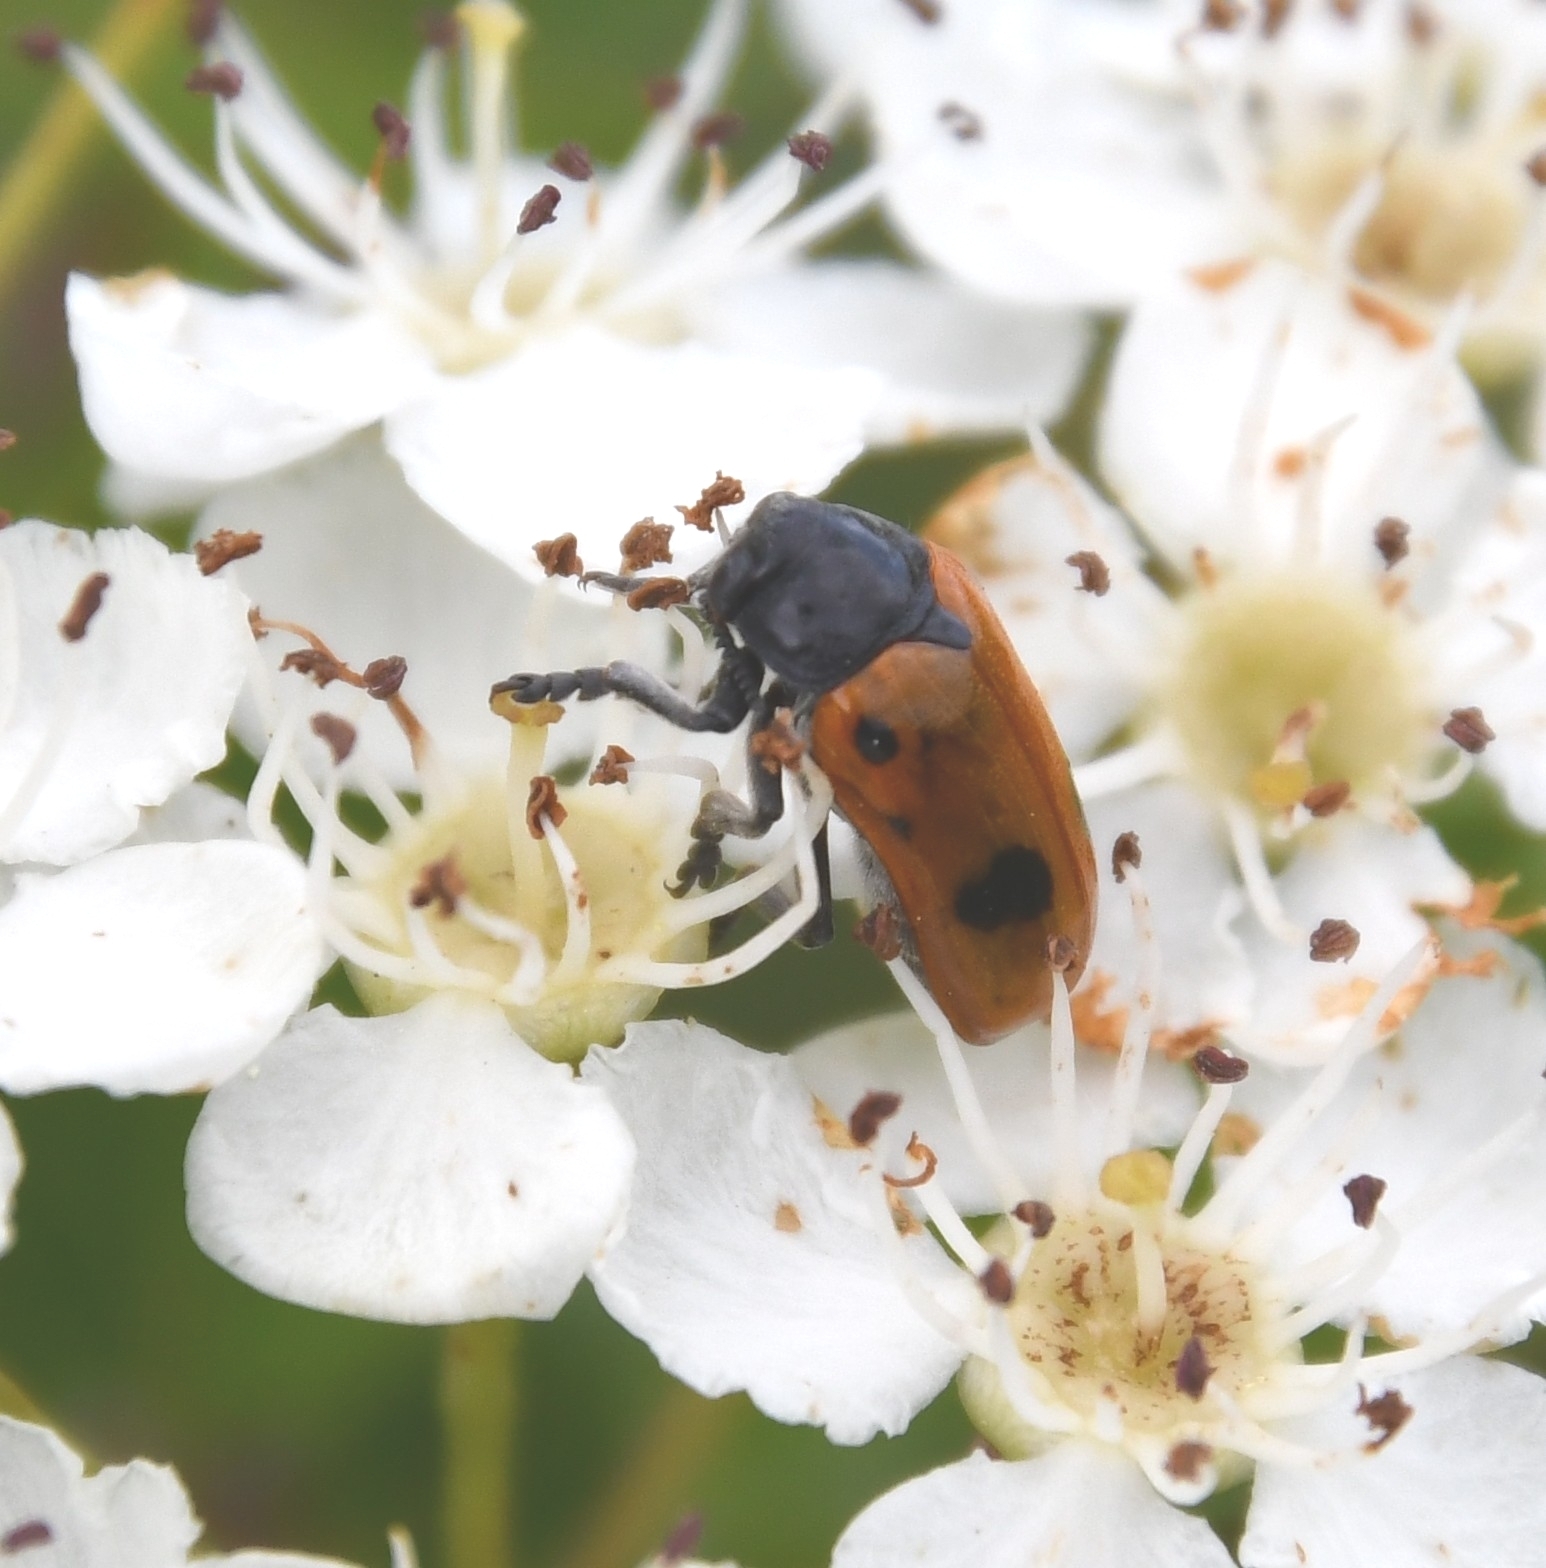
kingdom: Animalia
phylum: Arthropoda
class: Insecta
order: Coleoptera
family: Chrysomelidae
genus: Clytra
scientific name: Clytra quadripunctata
